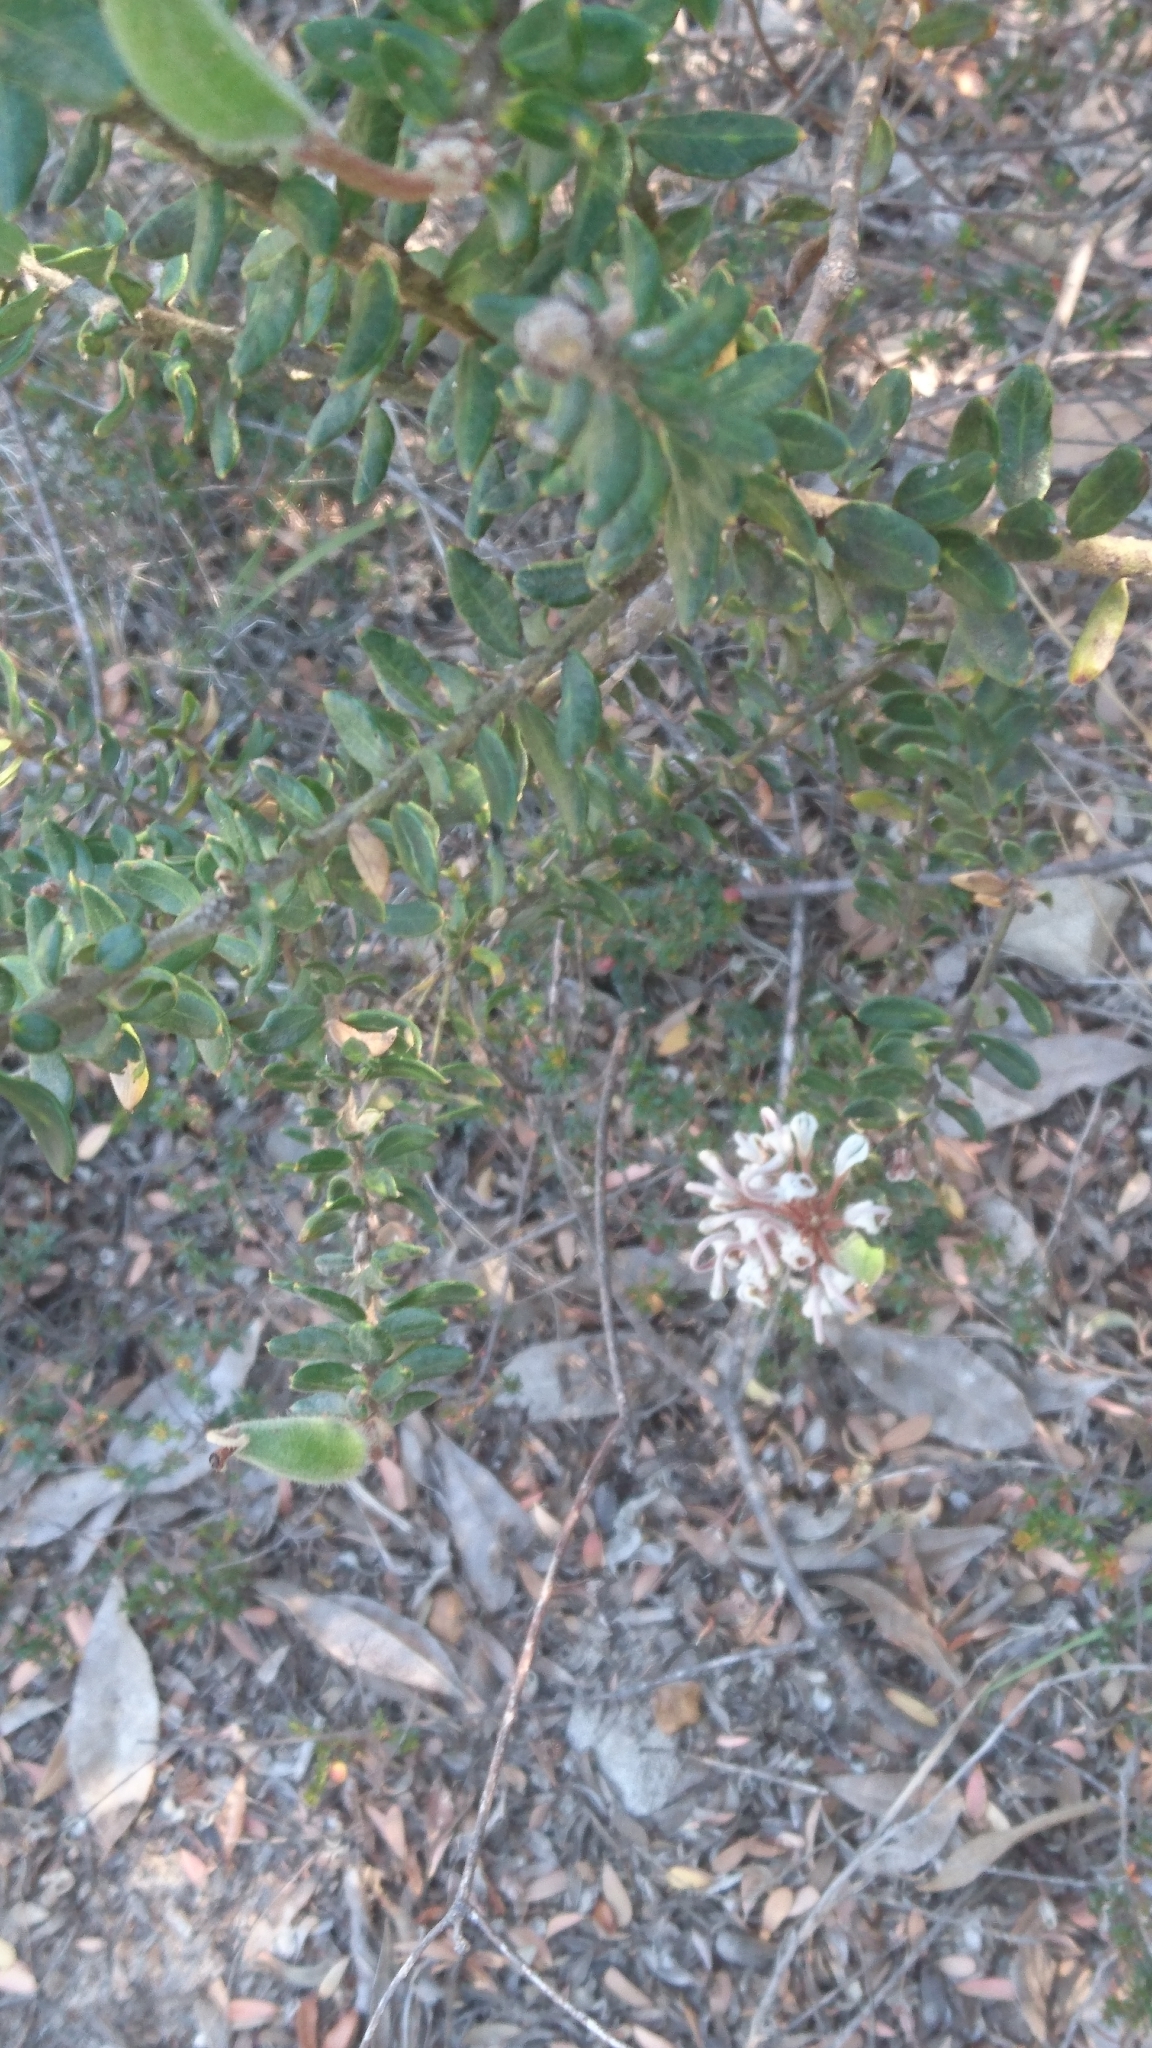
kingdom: Plantae
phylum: Tracheophyta
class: Magnoliopsida
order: Proteales
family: Proteaceae
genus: Grevillea
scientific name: Grevillea buxifolia
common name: Grey spiderflower
